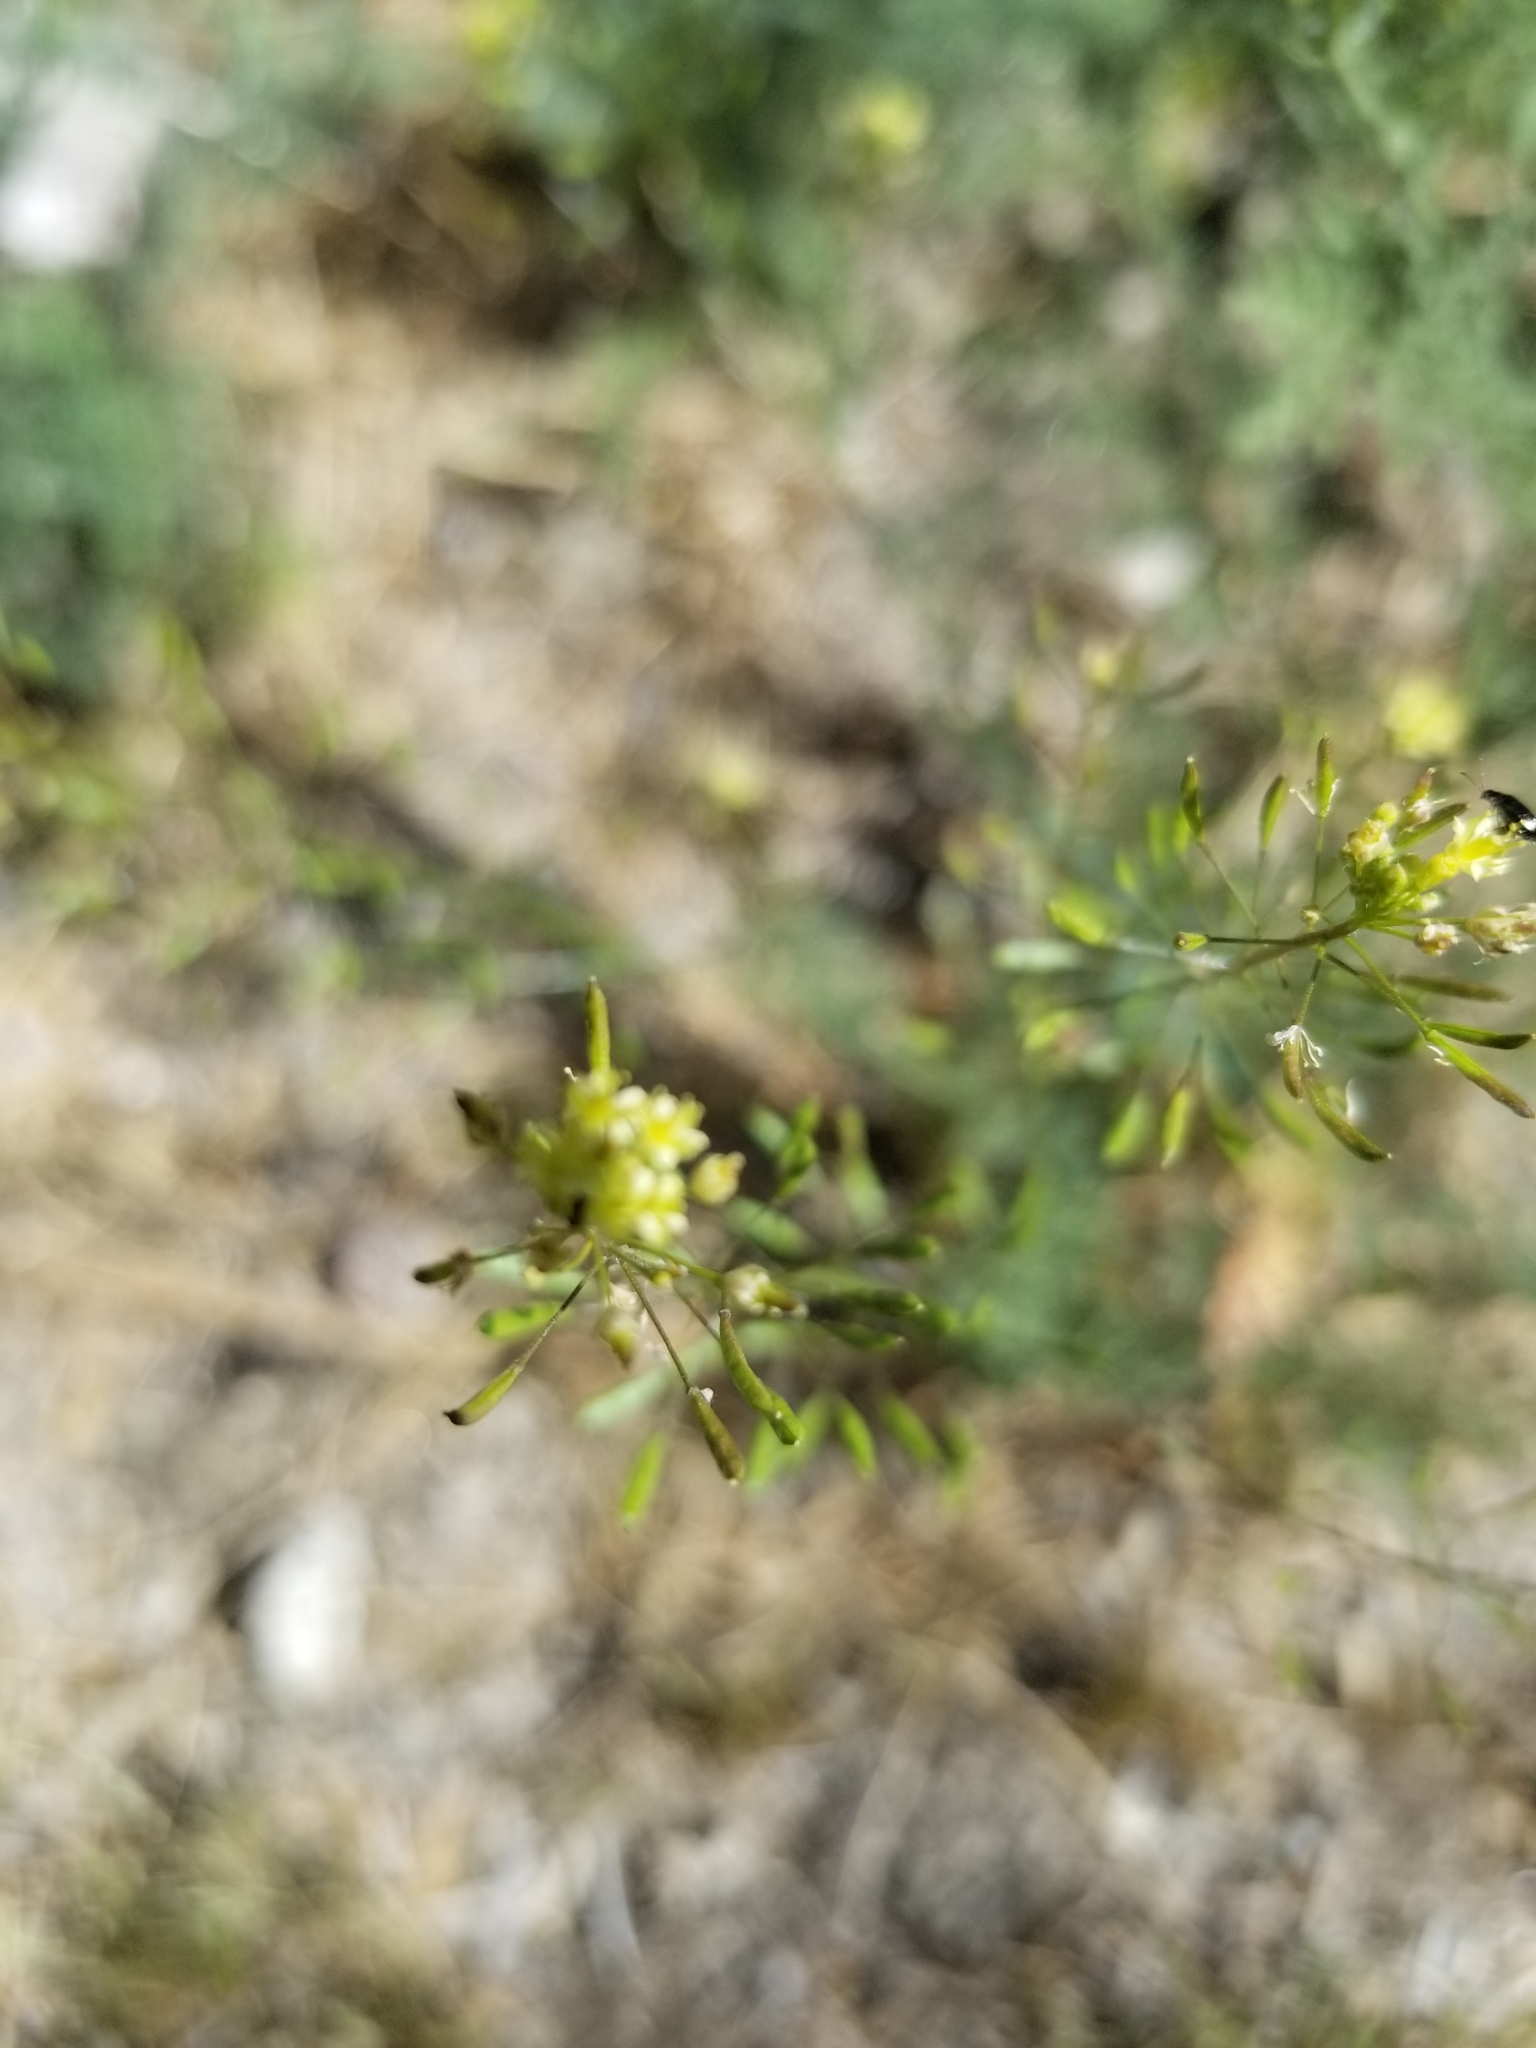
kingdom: Plantae
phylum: Tracheophyta
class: Magnoliopsida
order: Brassicales
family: Brassicaceae
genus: Descurainia
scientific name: Descurainia pinnata
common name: Western tansy mustard
